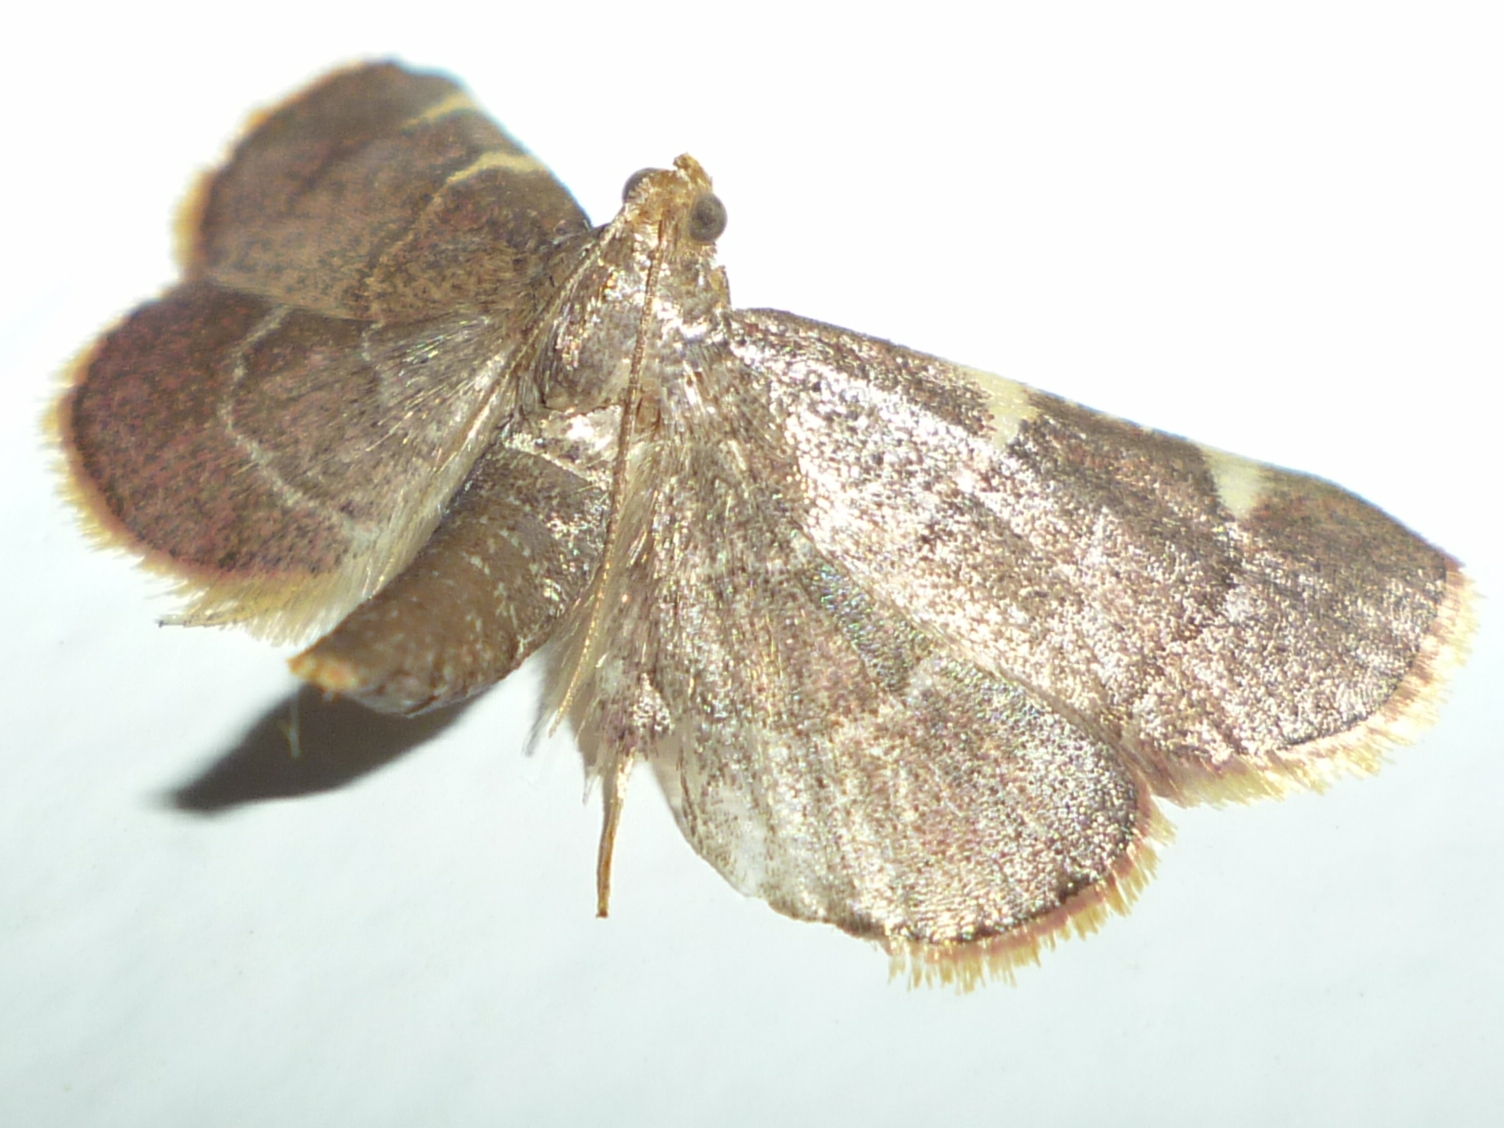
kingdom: Animalia
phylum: Arthropoda
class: Insecta
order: Lepidoptera
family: Pyralidae
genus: Hypsopygia
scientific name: Hypsopygia olinalis
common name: Yellow-fringed dolichomia moth
